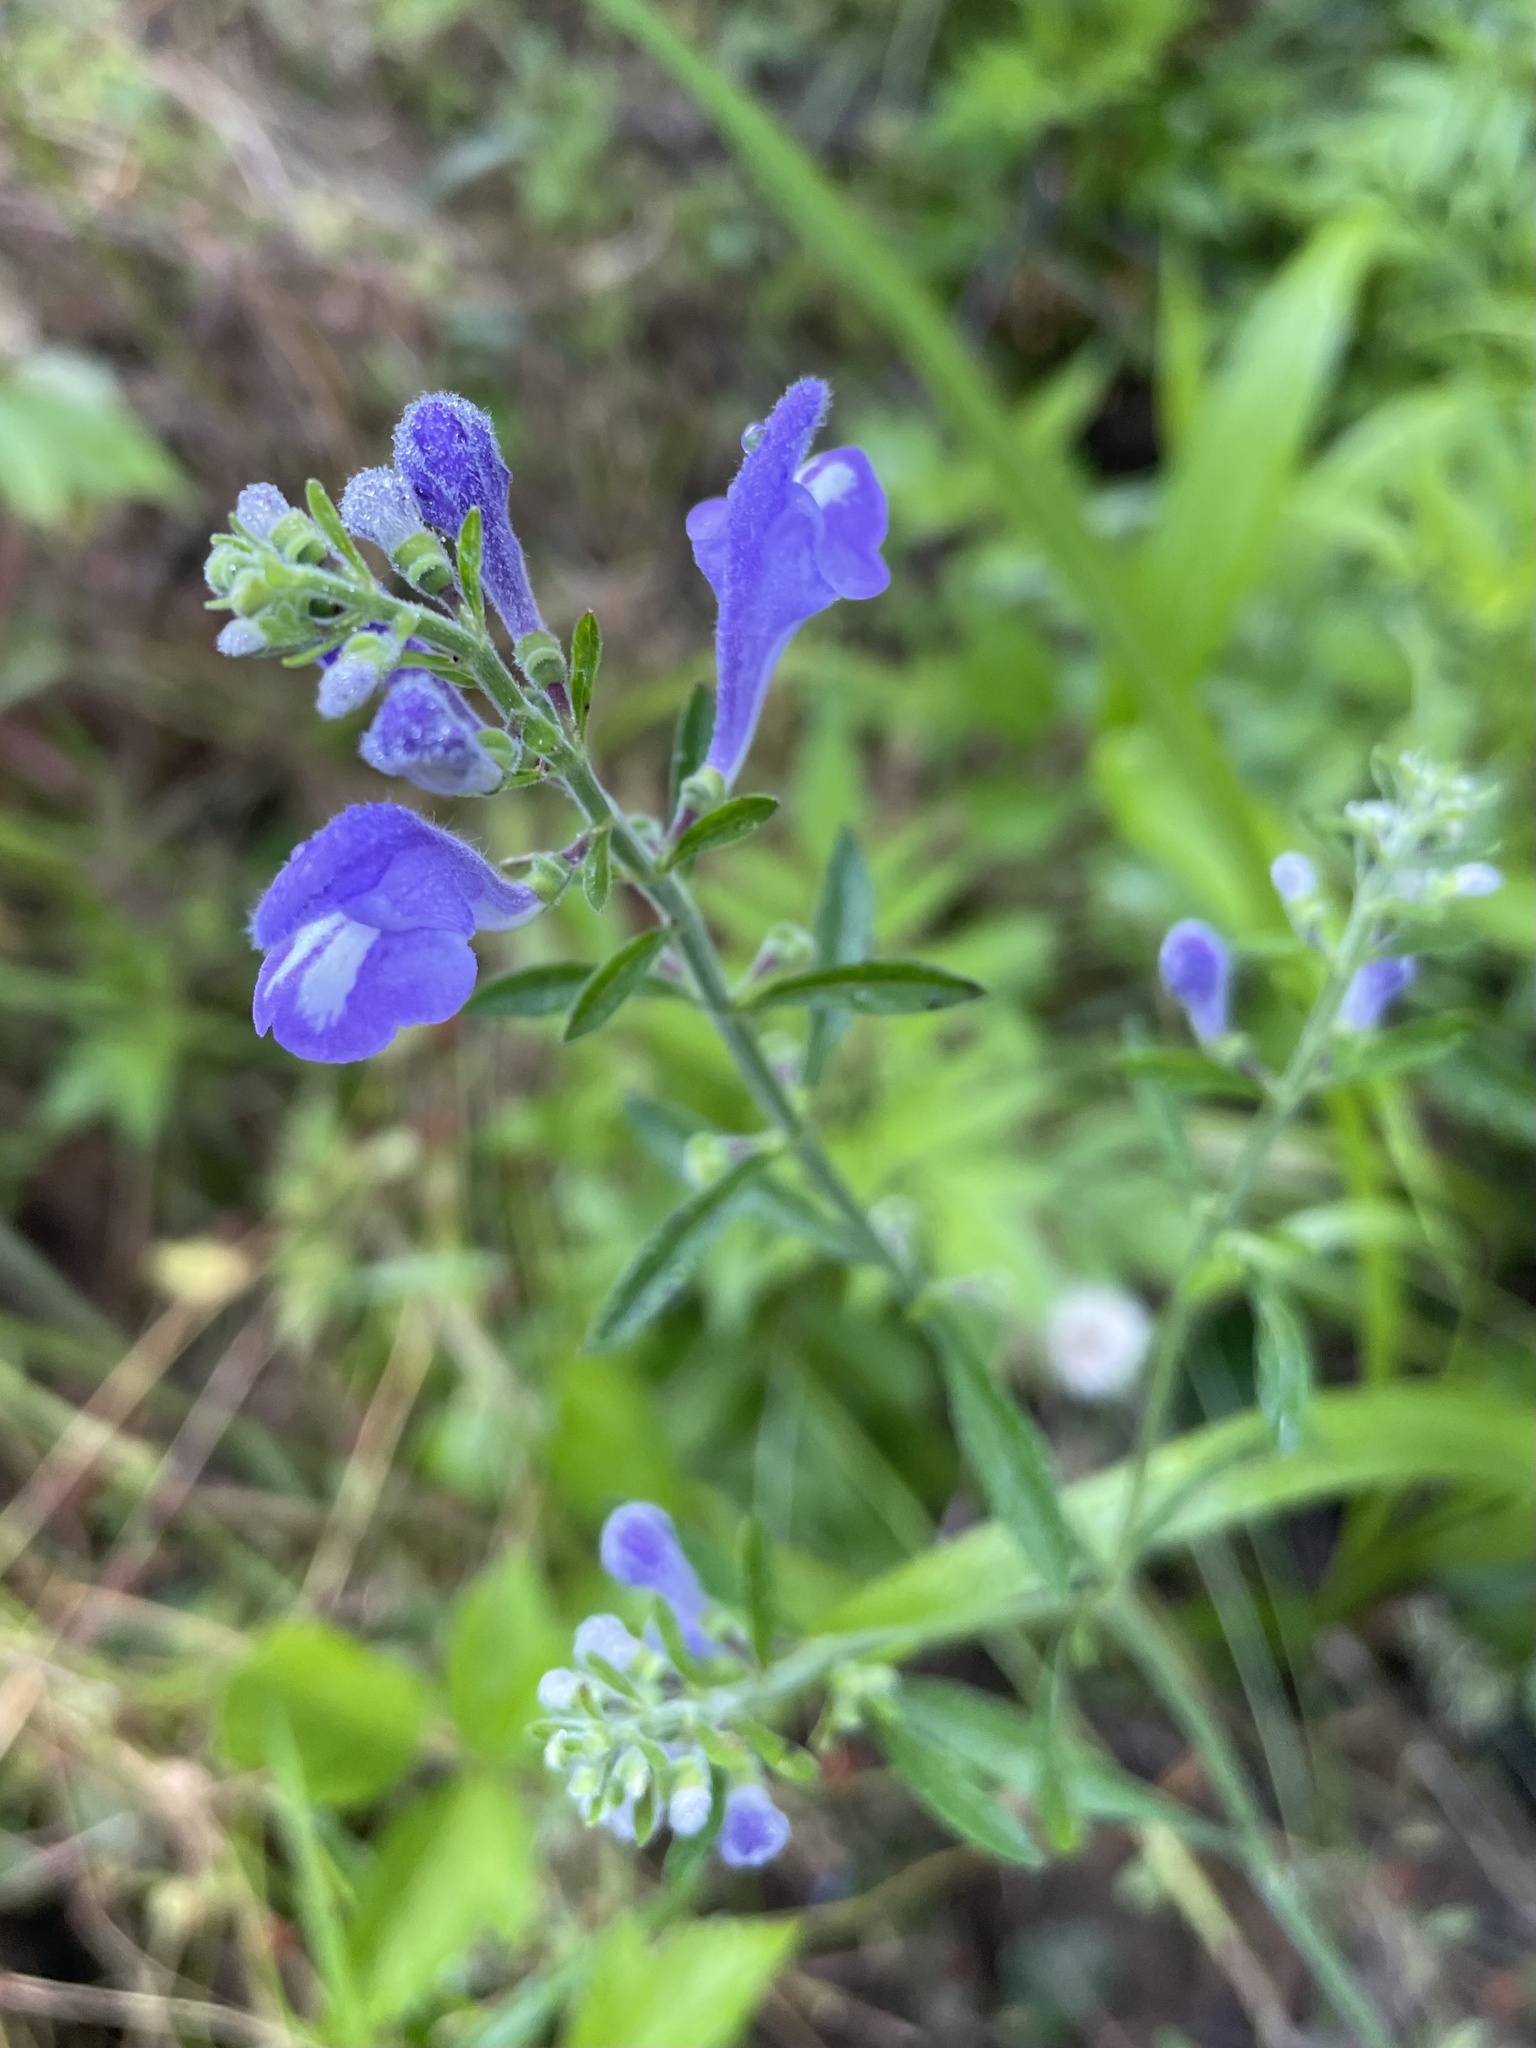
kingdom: Plantae
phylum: Tracheophyta
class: Magnoliopsida
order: Lamiales
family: Lamiaceae
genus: Scutellaria
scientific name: Scutellaria integrifolia
